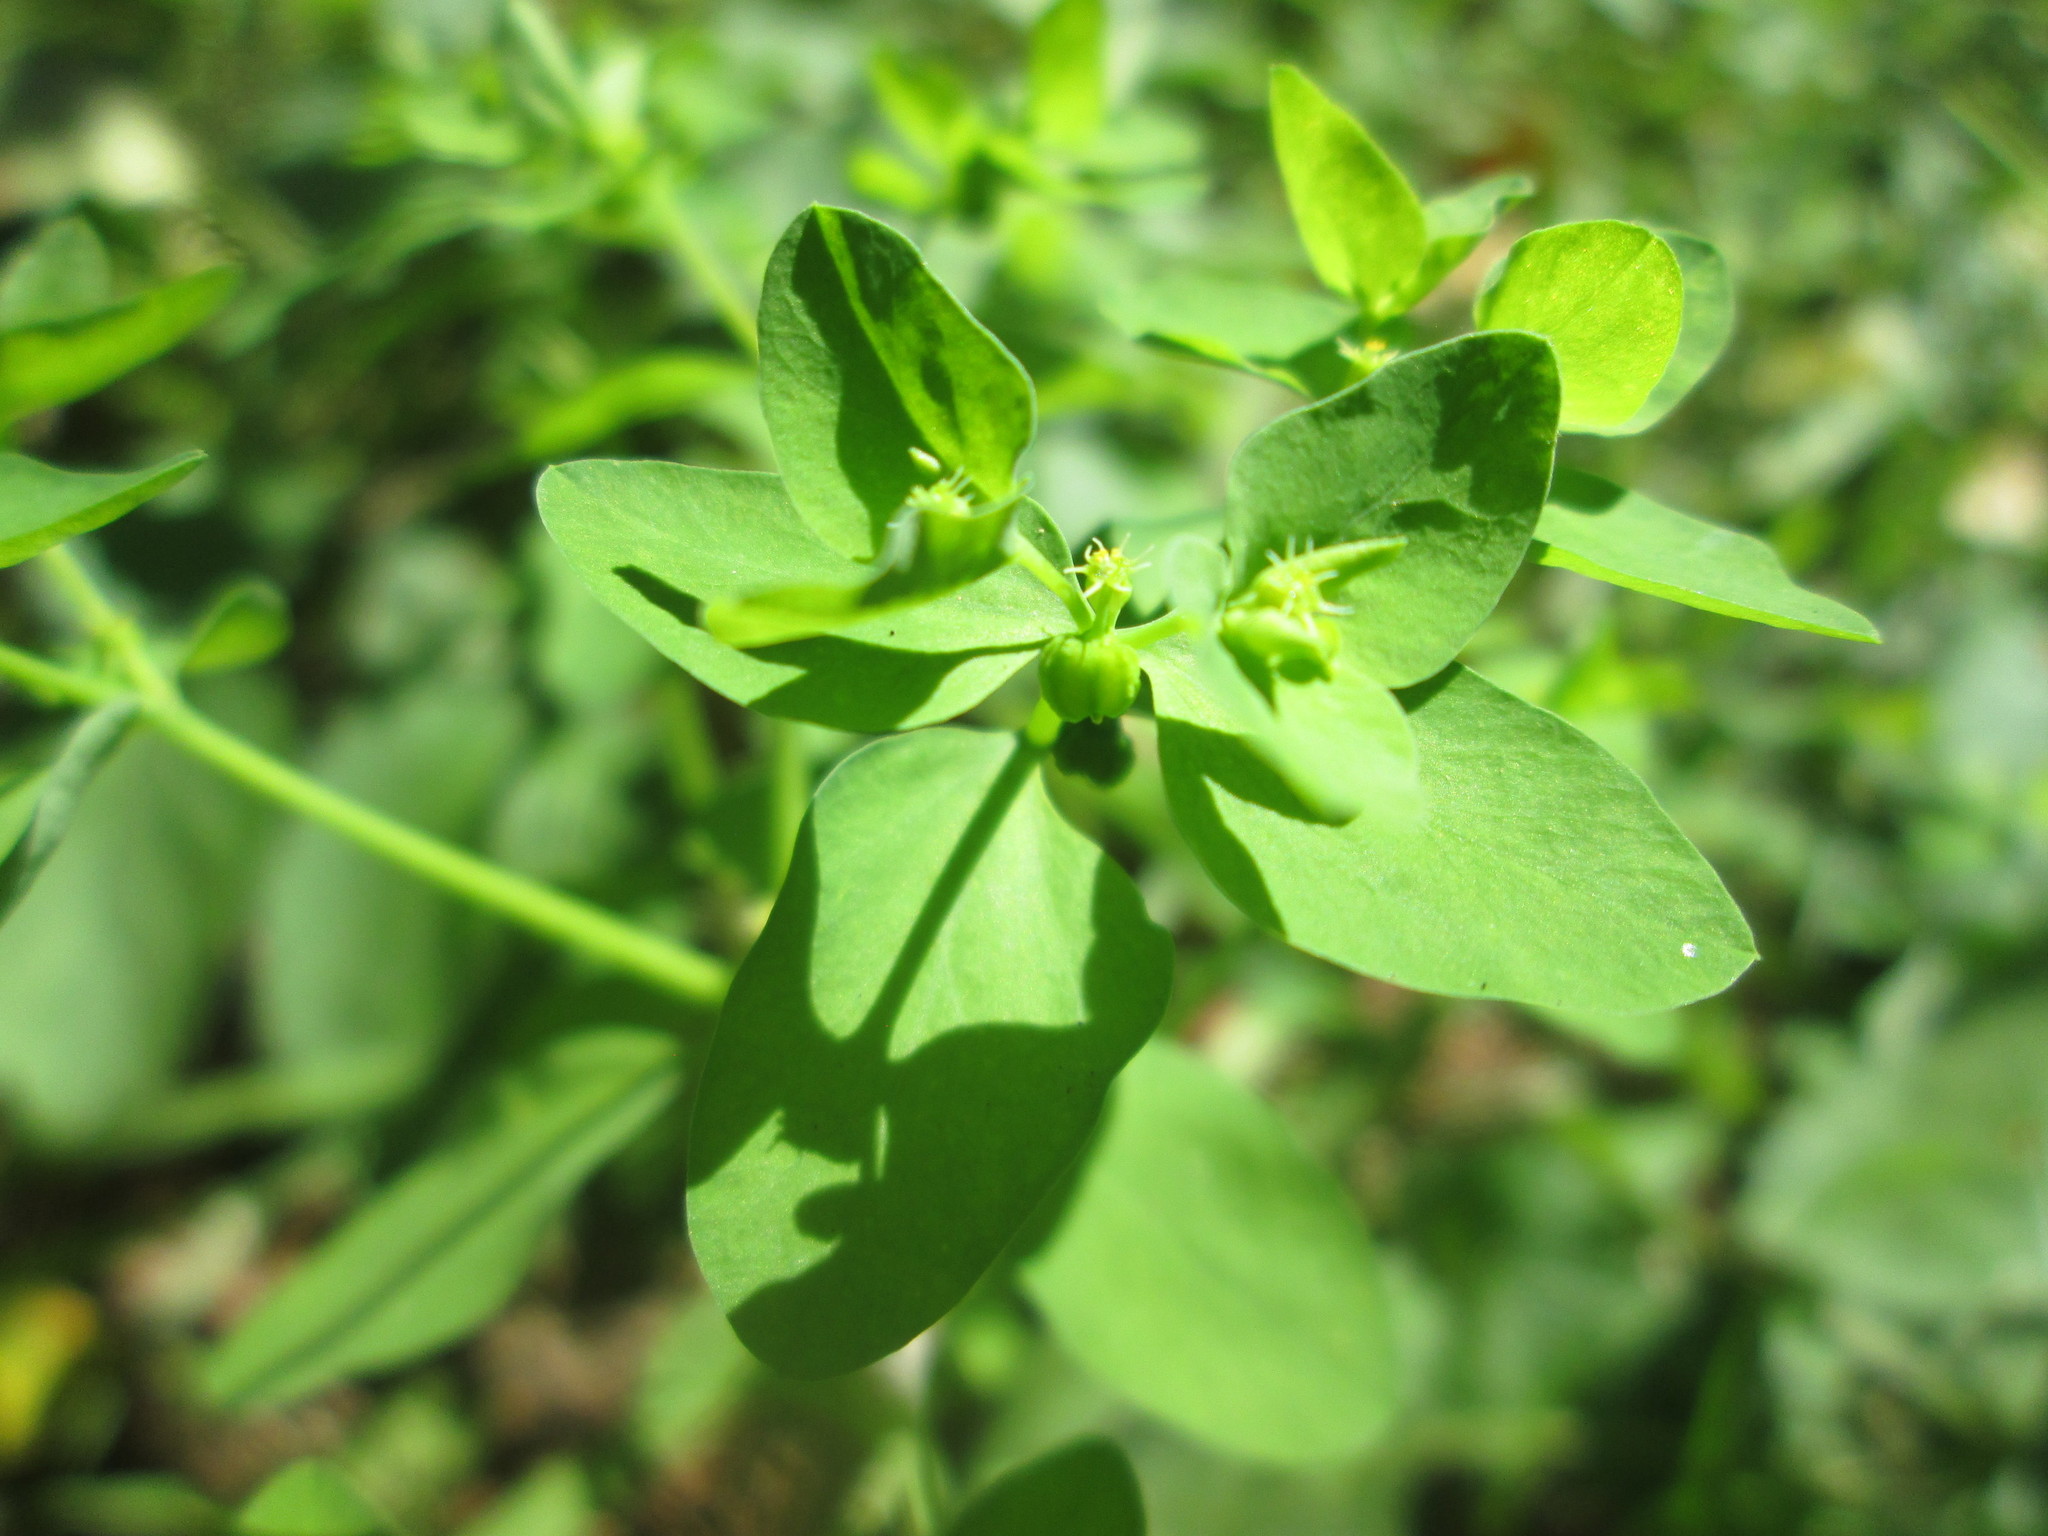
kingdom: Plantae
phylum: Tracheophyta
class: Magnoliopsida
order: Malpighiales
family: Euphorbiaceae
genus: Euphorbia
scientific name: Euphorbia peplus
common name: Petty spurge
